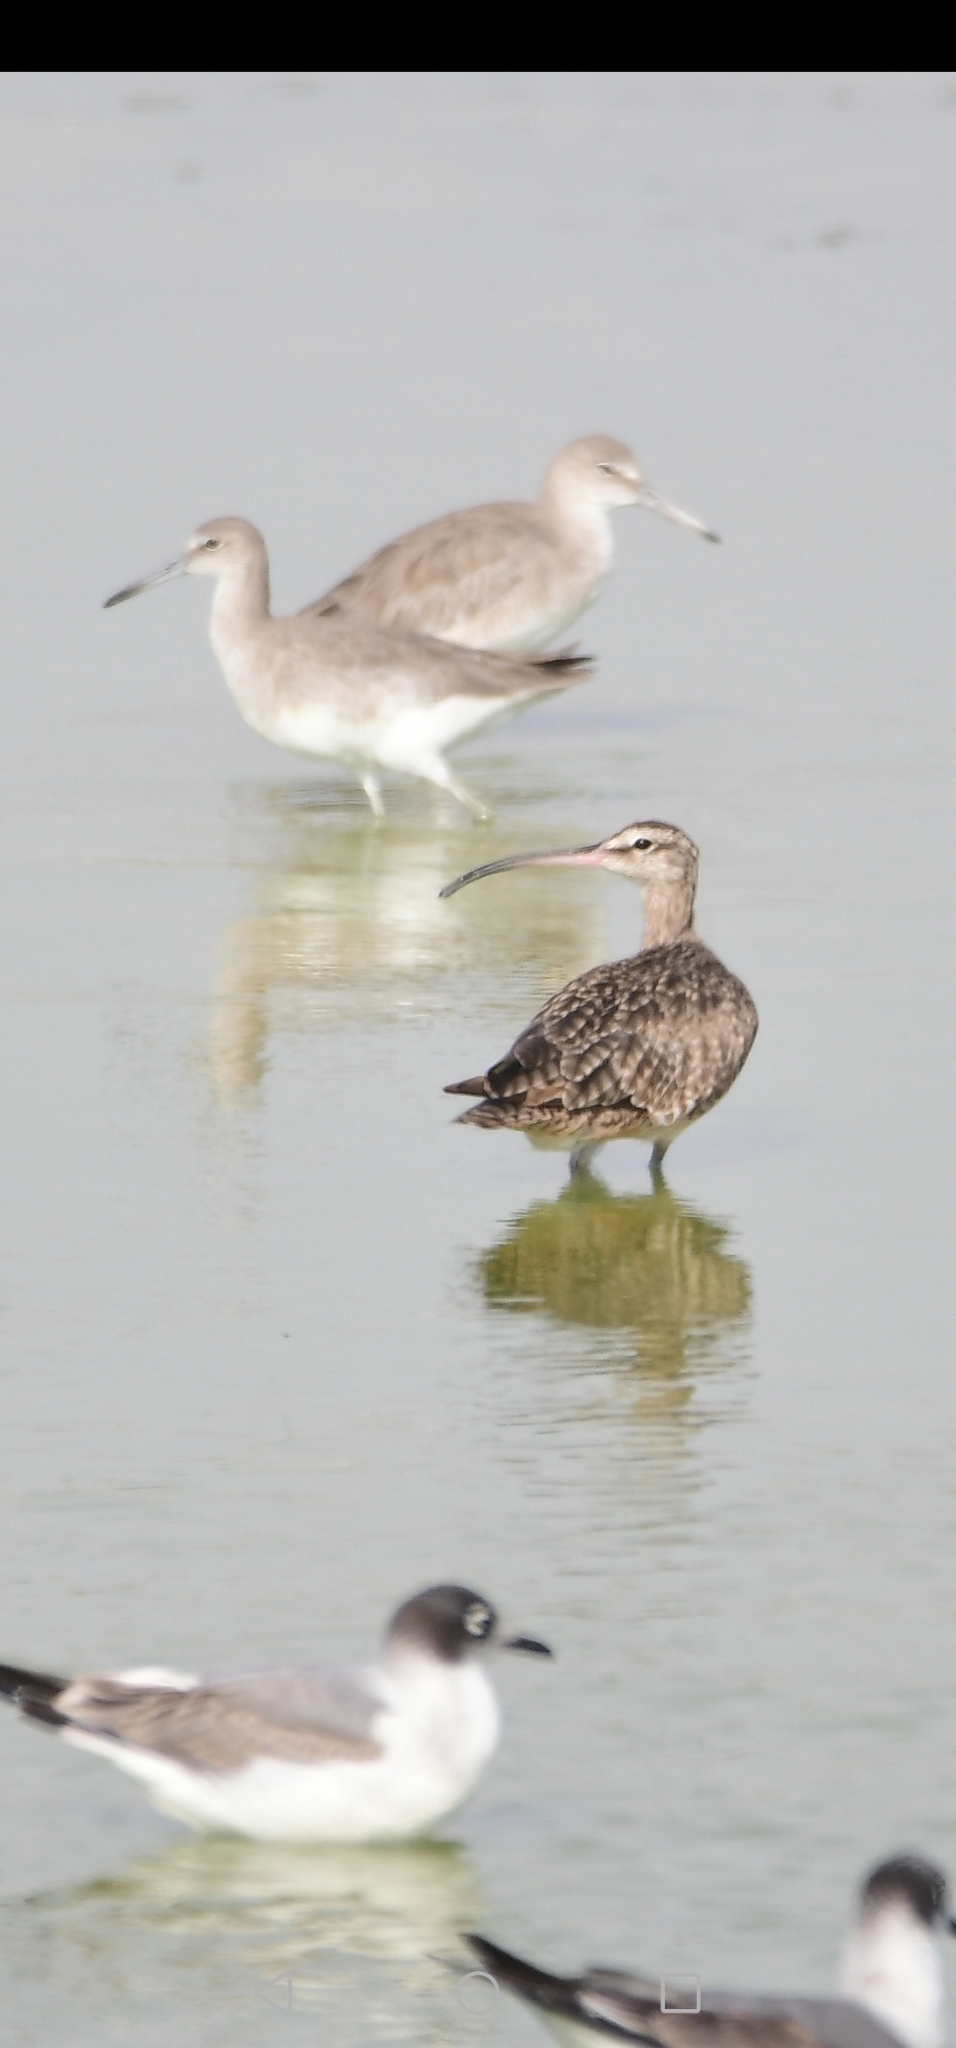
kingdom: Animalia
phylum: Chordata
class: Aves
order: Charadriiformes
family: Scolopacidae
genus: Numenius
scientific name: Numenius phaeopus
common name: Whimbrel
